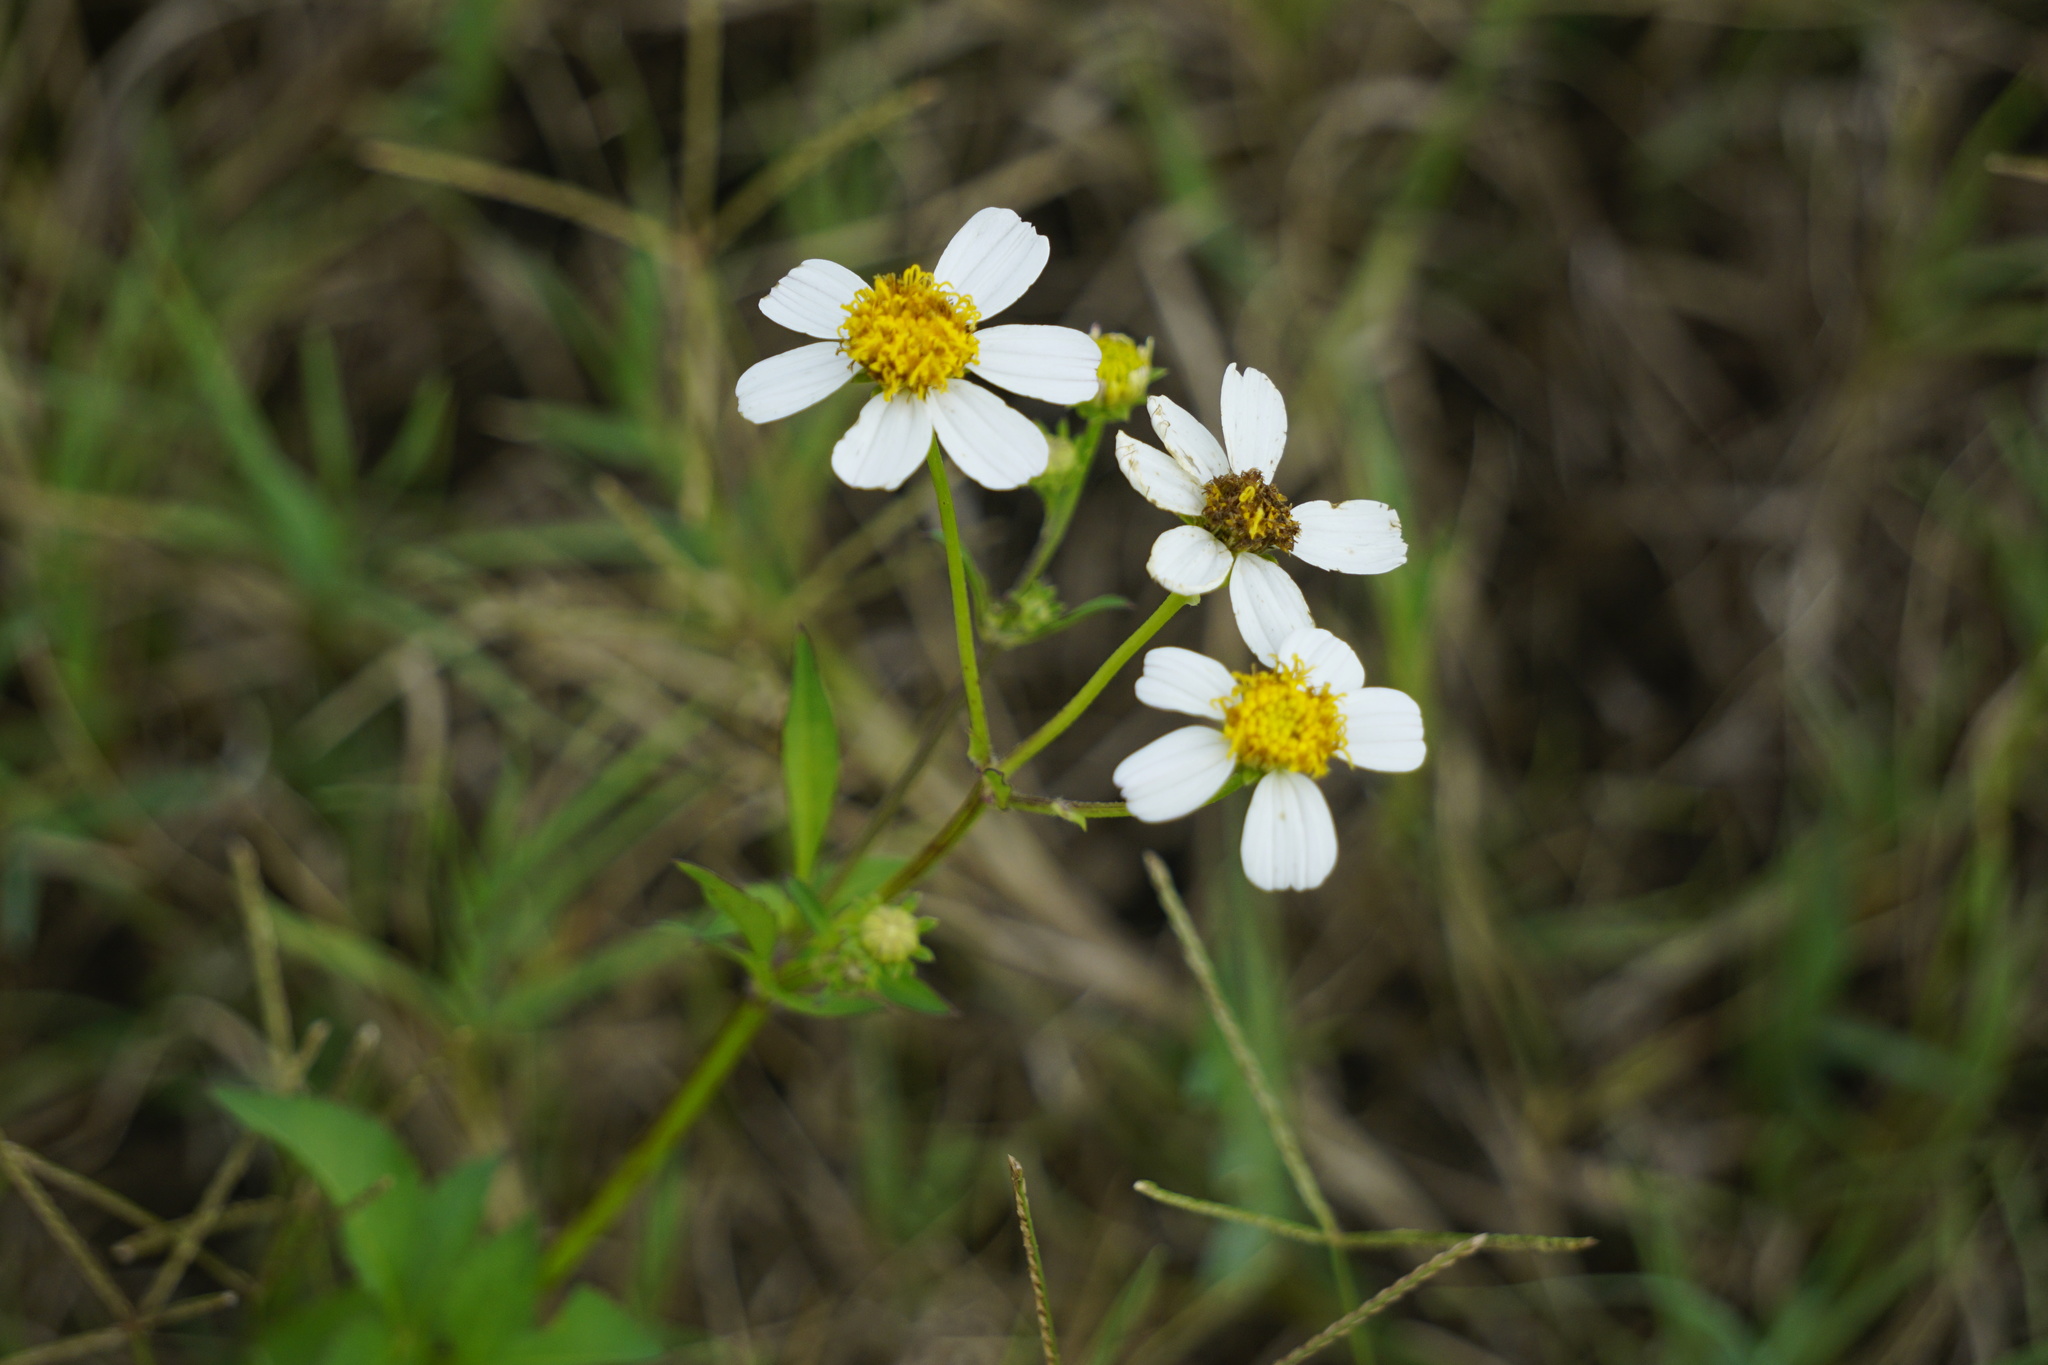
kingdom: Plantae
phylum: Tracheophyta
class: Magnoliopsida
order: Asterales
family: Asteraceae
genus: Bidens
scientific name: Bidens alba
